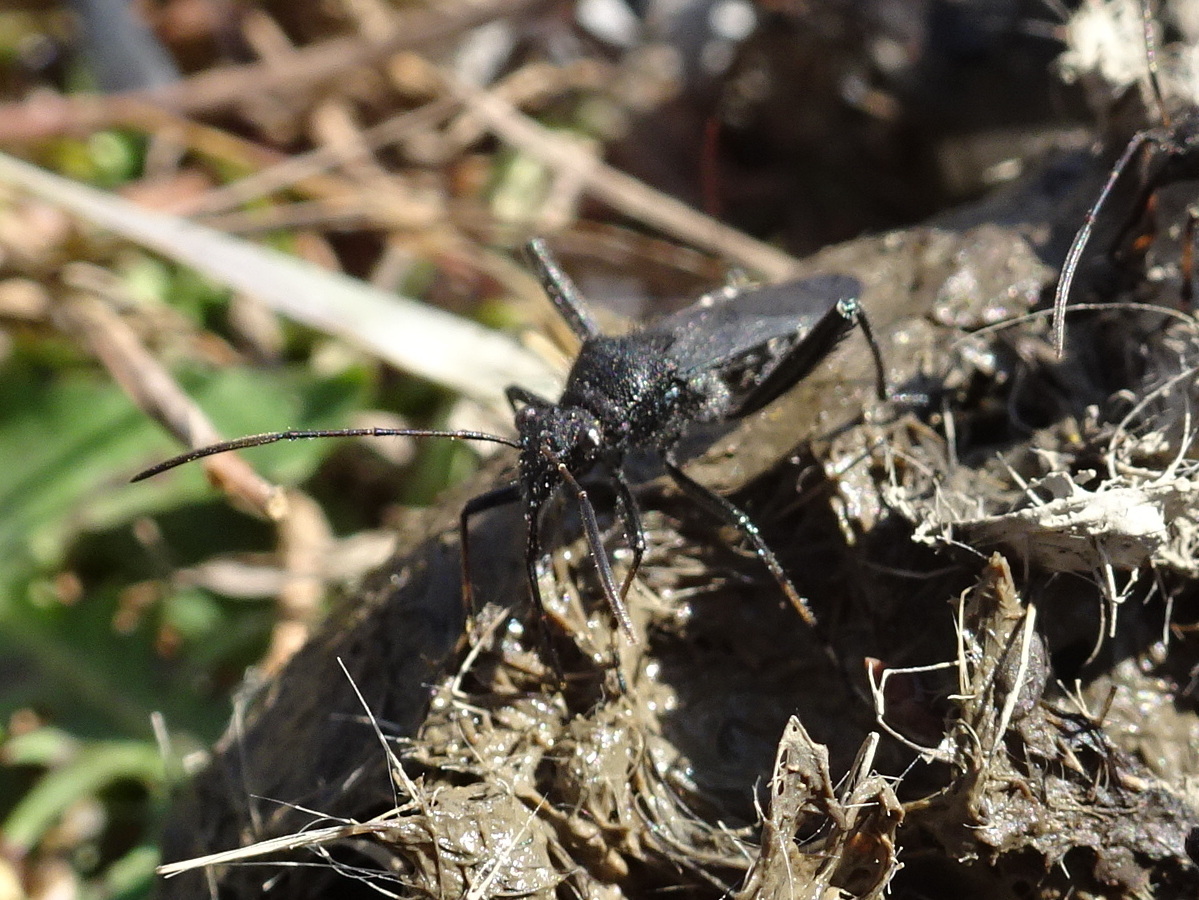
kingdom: Animalia
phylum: Arthropoda
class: Insecta
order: Hemiptera
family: Alydidae
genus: Alydus
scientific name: Alydus eurinus
